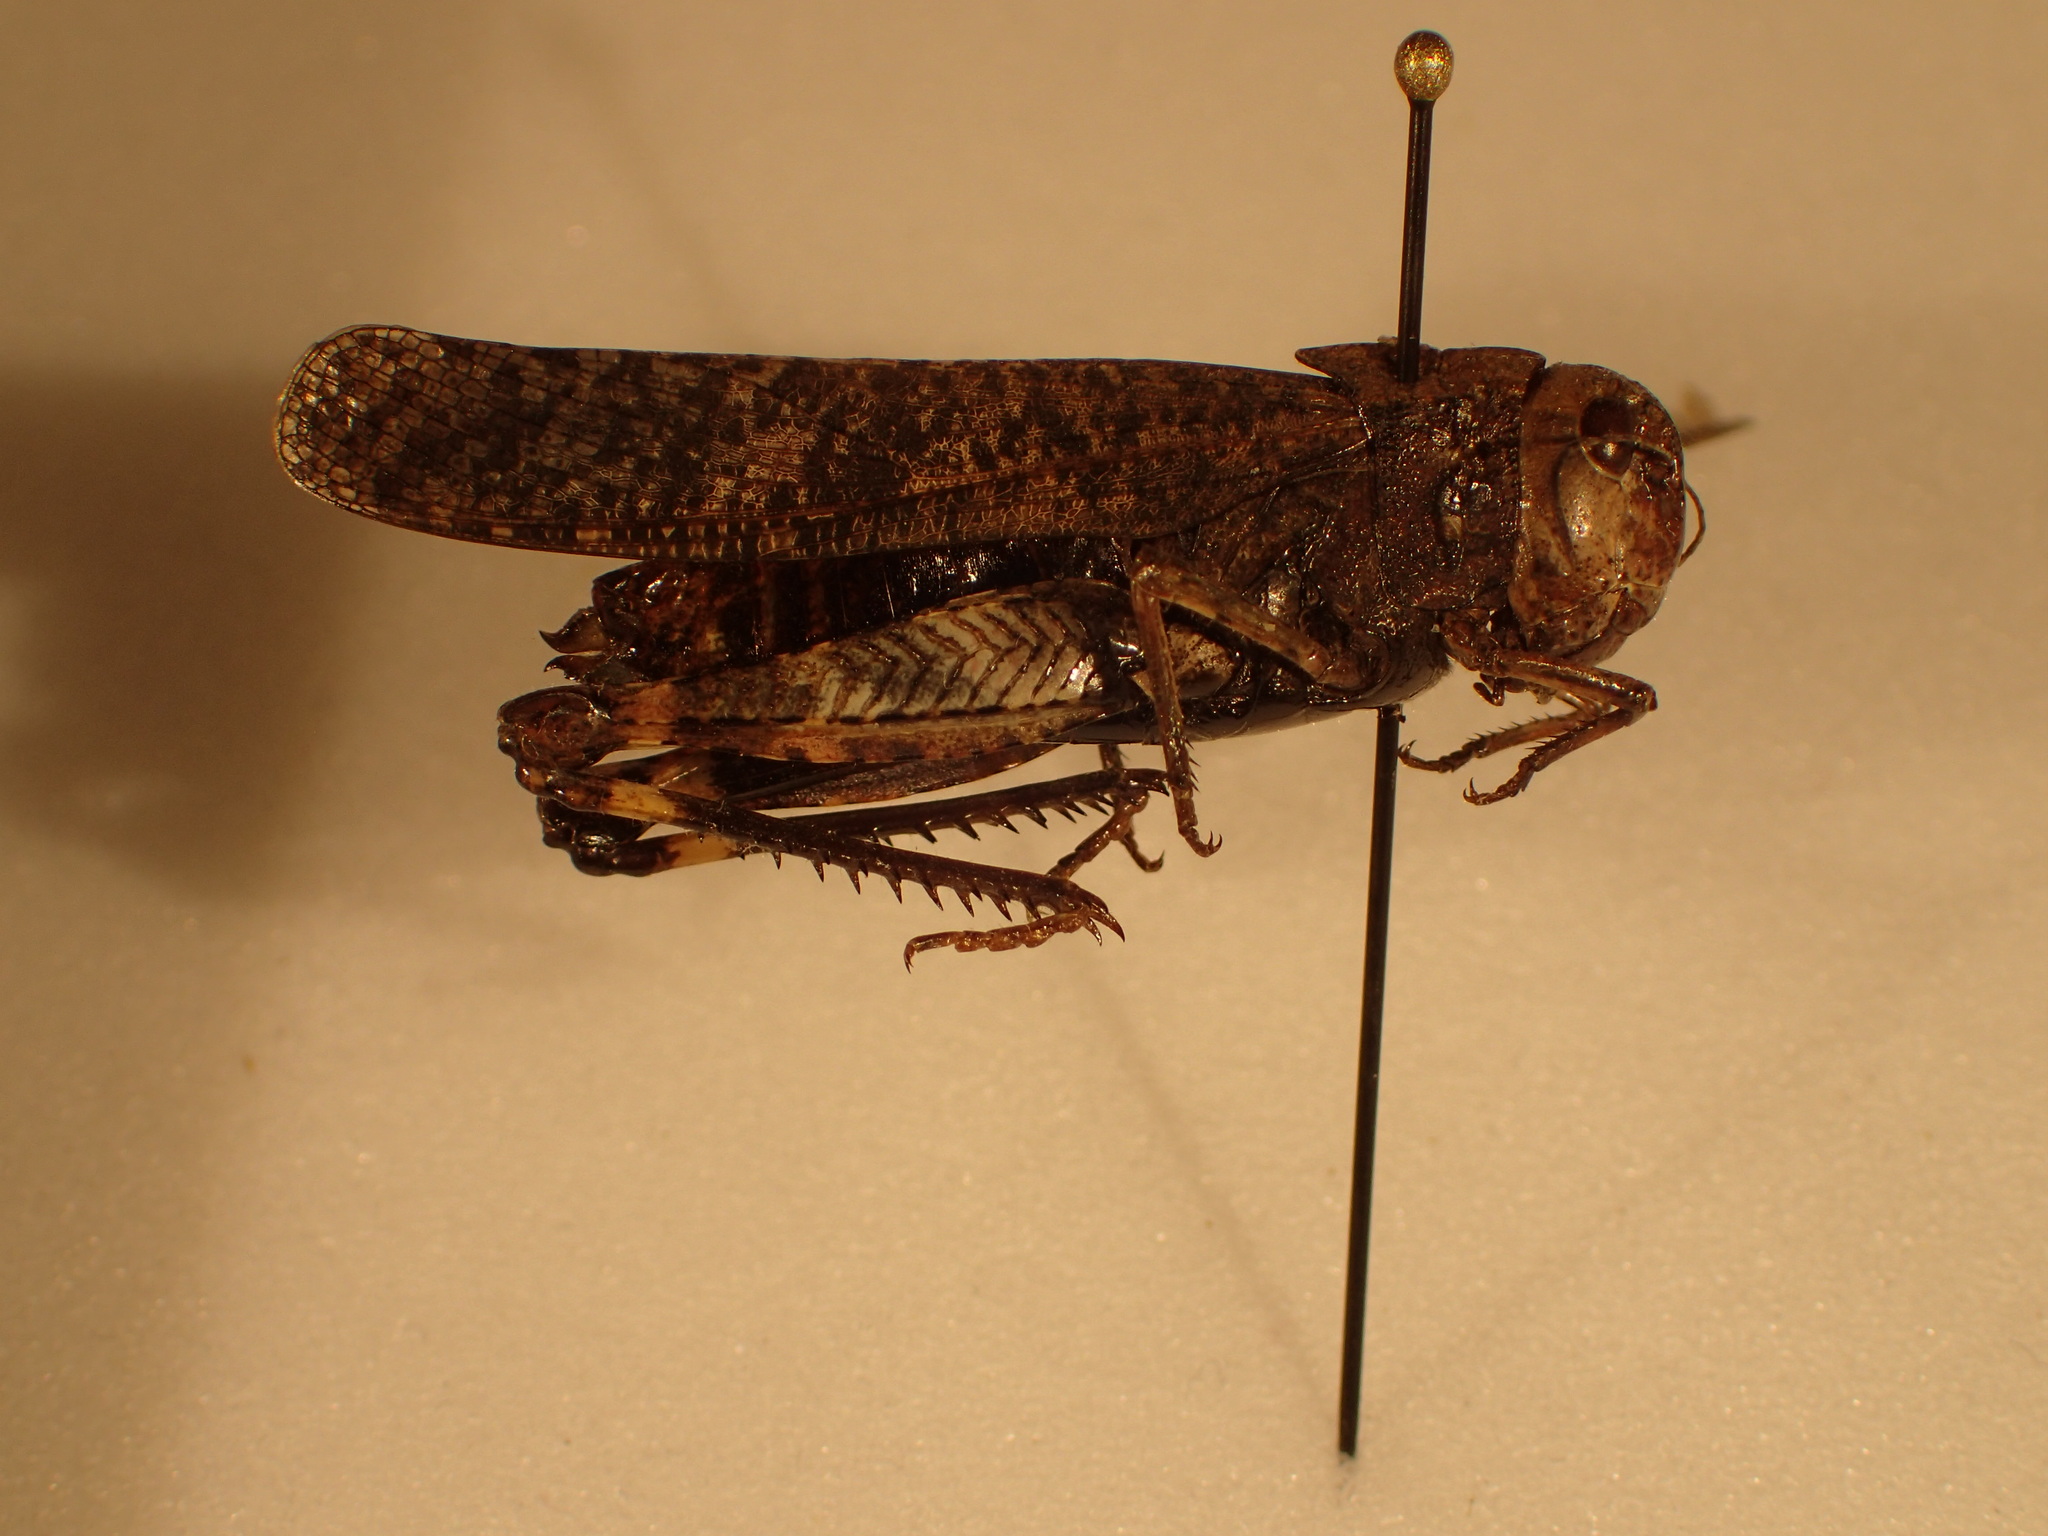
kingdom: Animalia
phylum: Arthropoda
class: Insecta
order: Orthoptera
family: Acrididae
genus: Arphia
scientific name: Arphia pseudo-nietana
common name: Red-winged grasshopper
